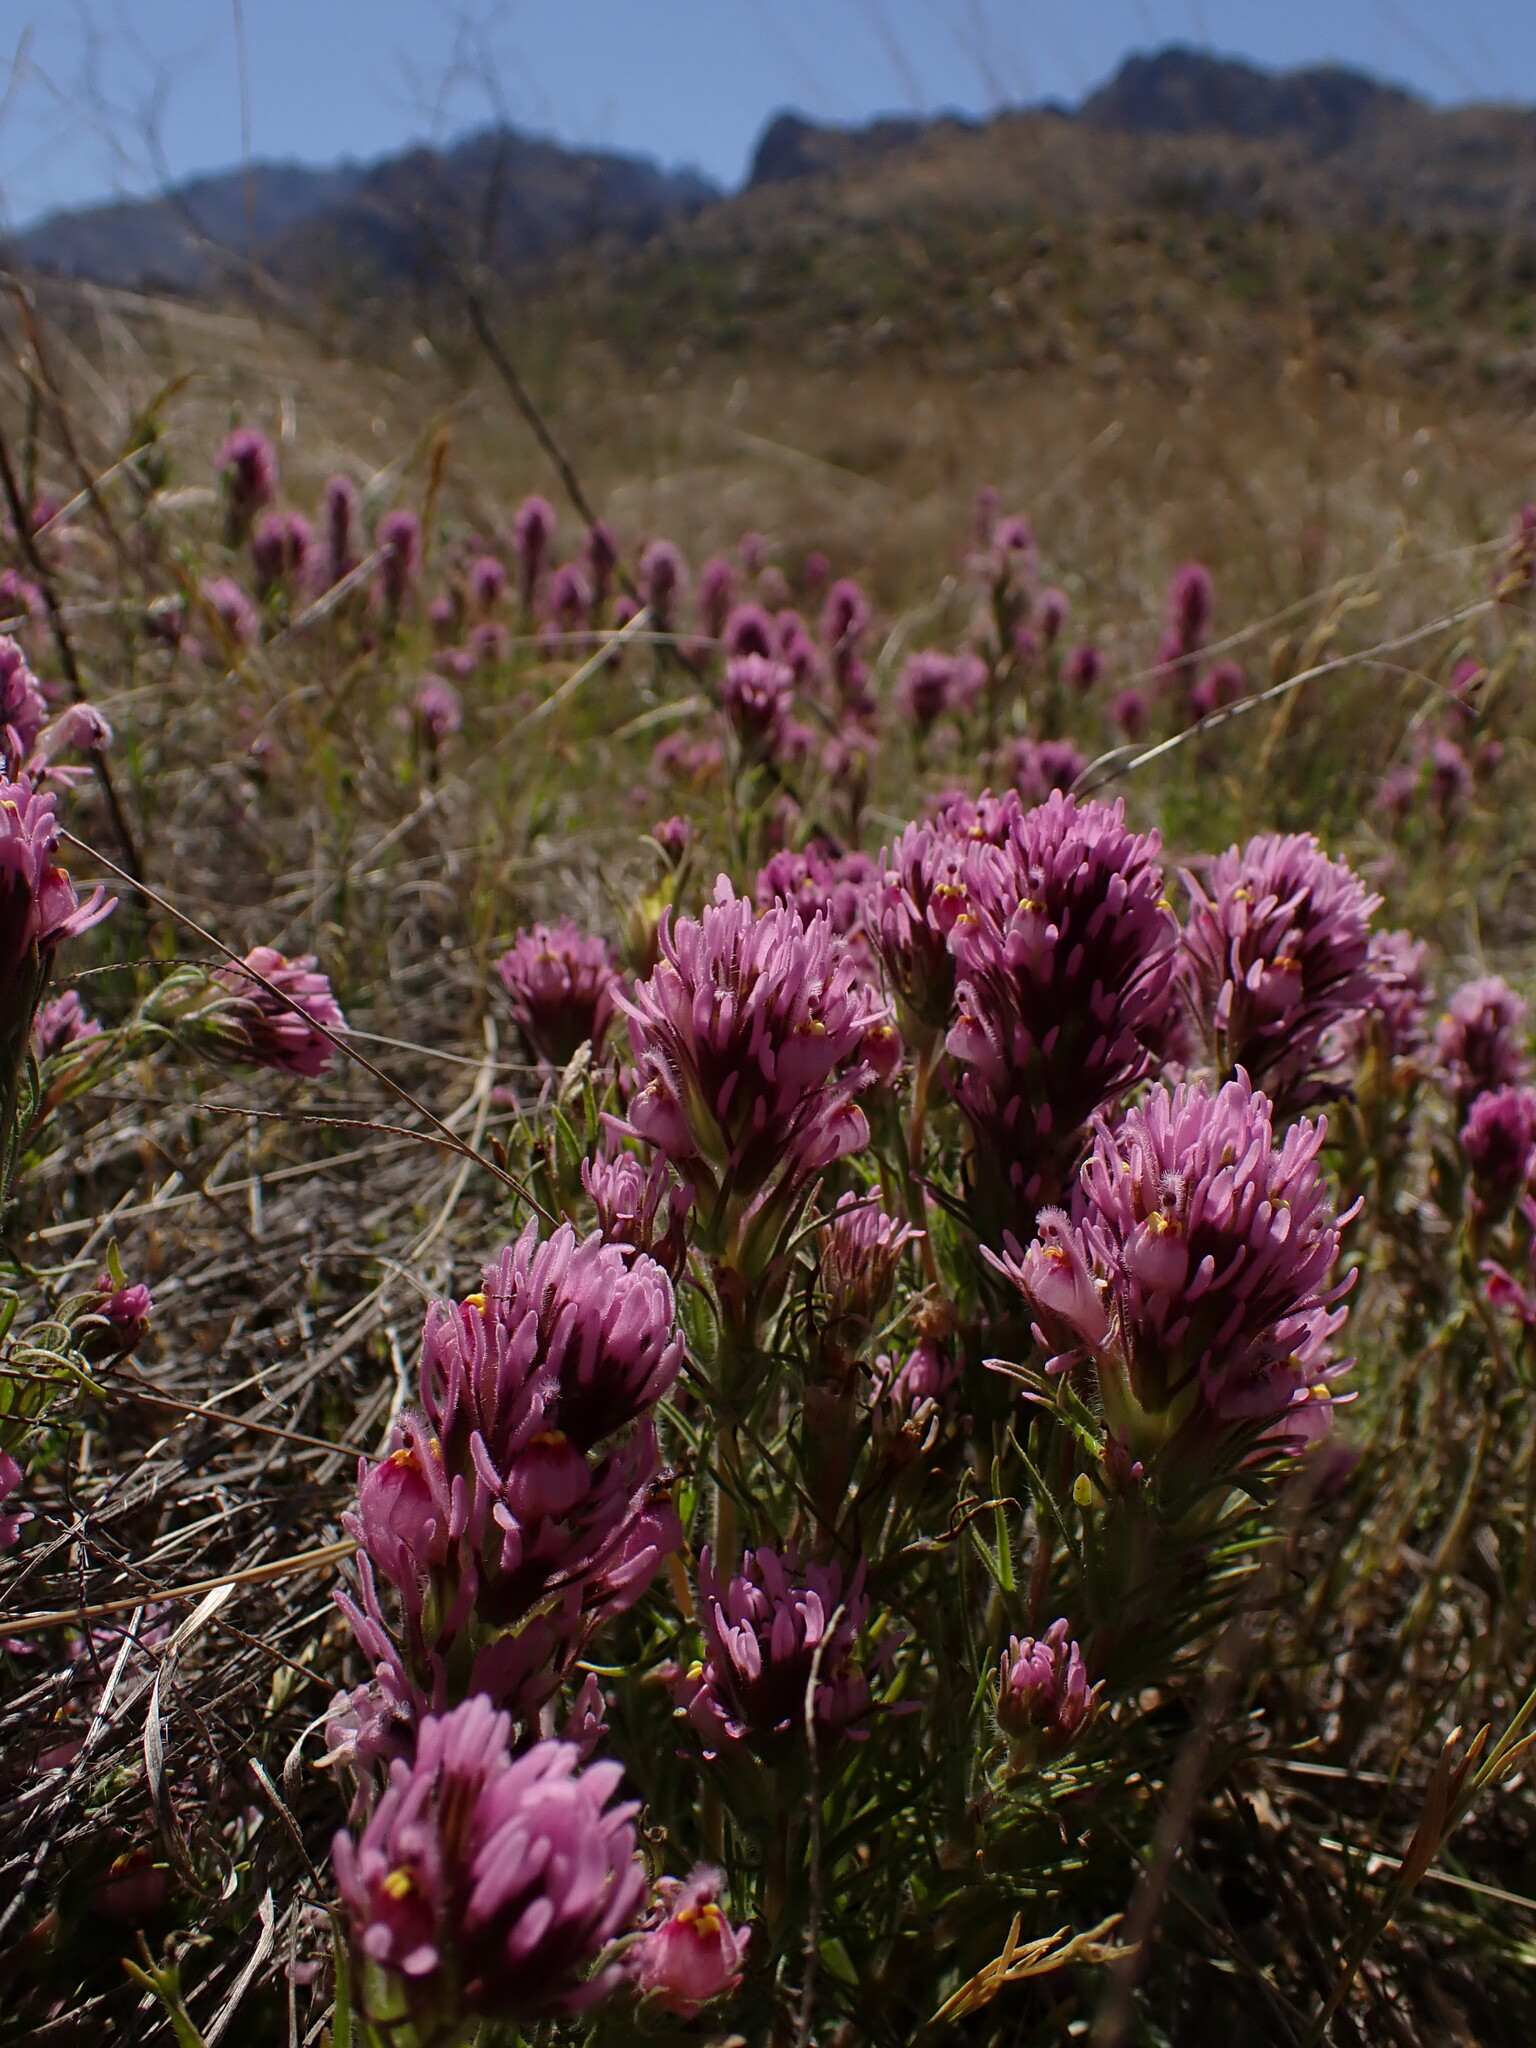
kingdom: Plantae
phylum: Tracheophyta
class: Magnoliopsida
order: Lamiales
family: Orobanchaceae
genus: Castilleja
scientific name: Castilleja exserta
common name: Purple owl-clover
